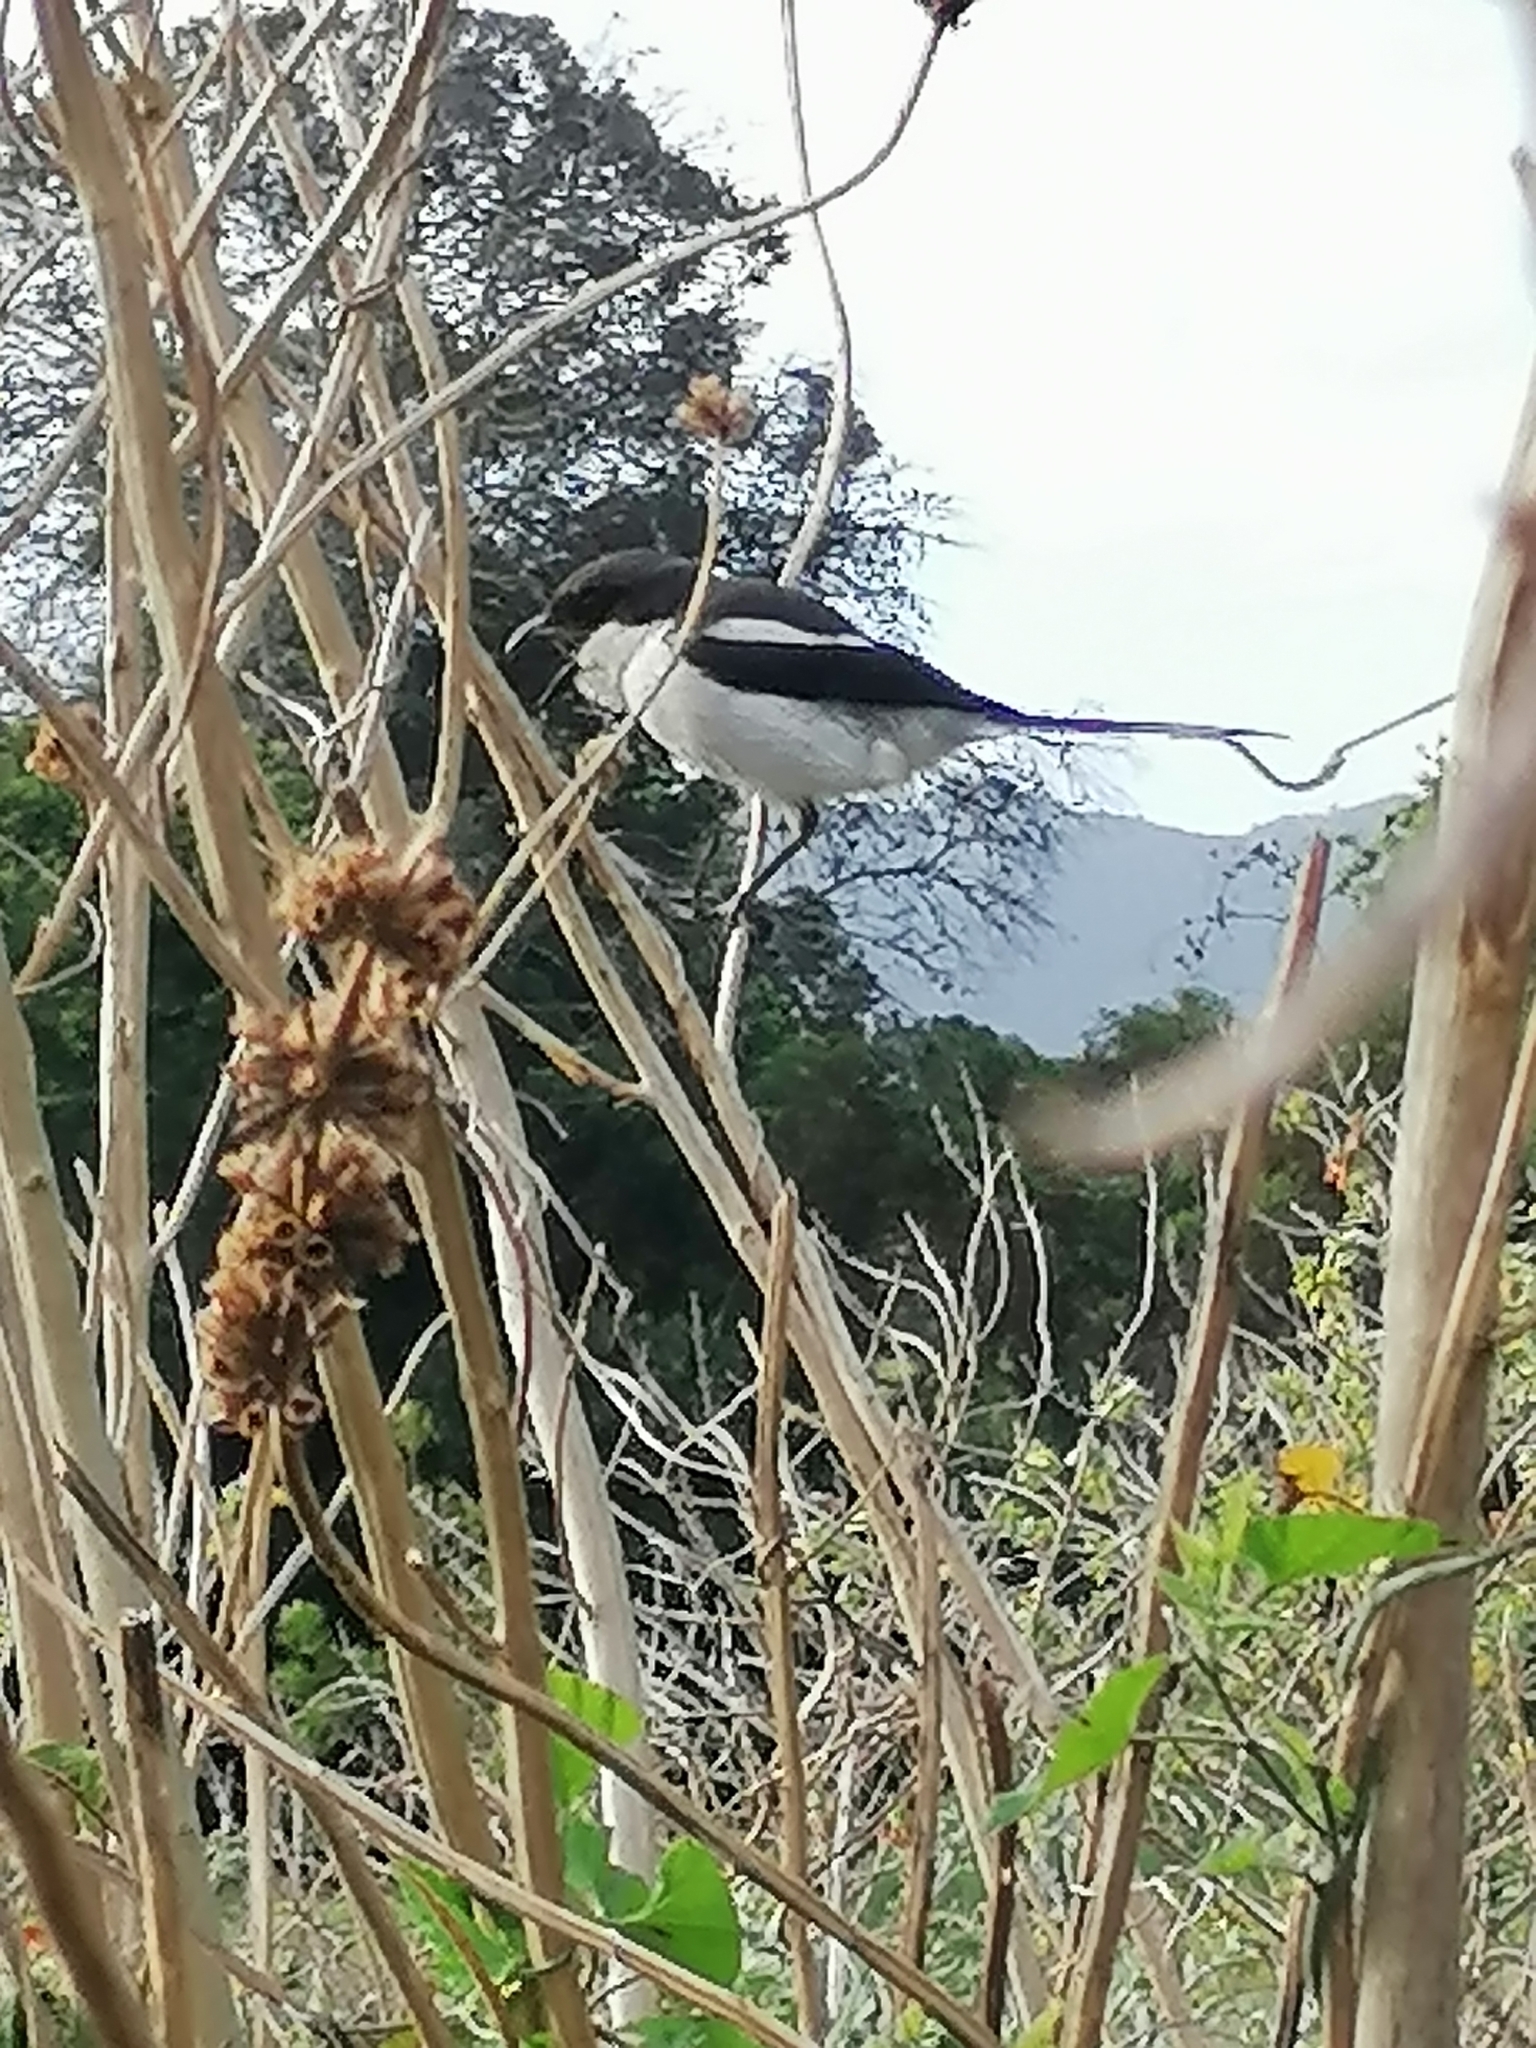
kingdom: Animalia
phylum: Chordata
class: Aves
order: Passeriformes
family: Laniidae
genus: Lanius
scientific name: Lanius collaris
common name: Southern fiscal
